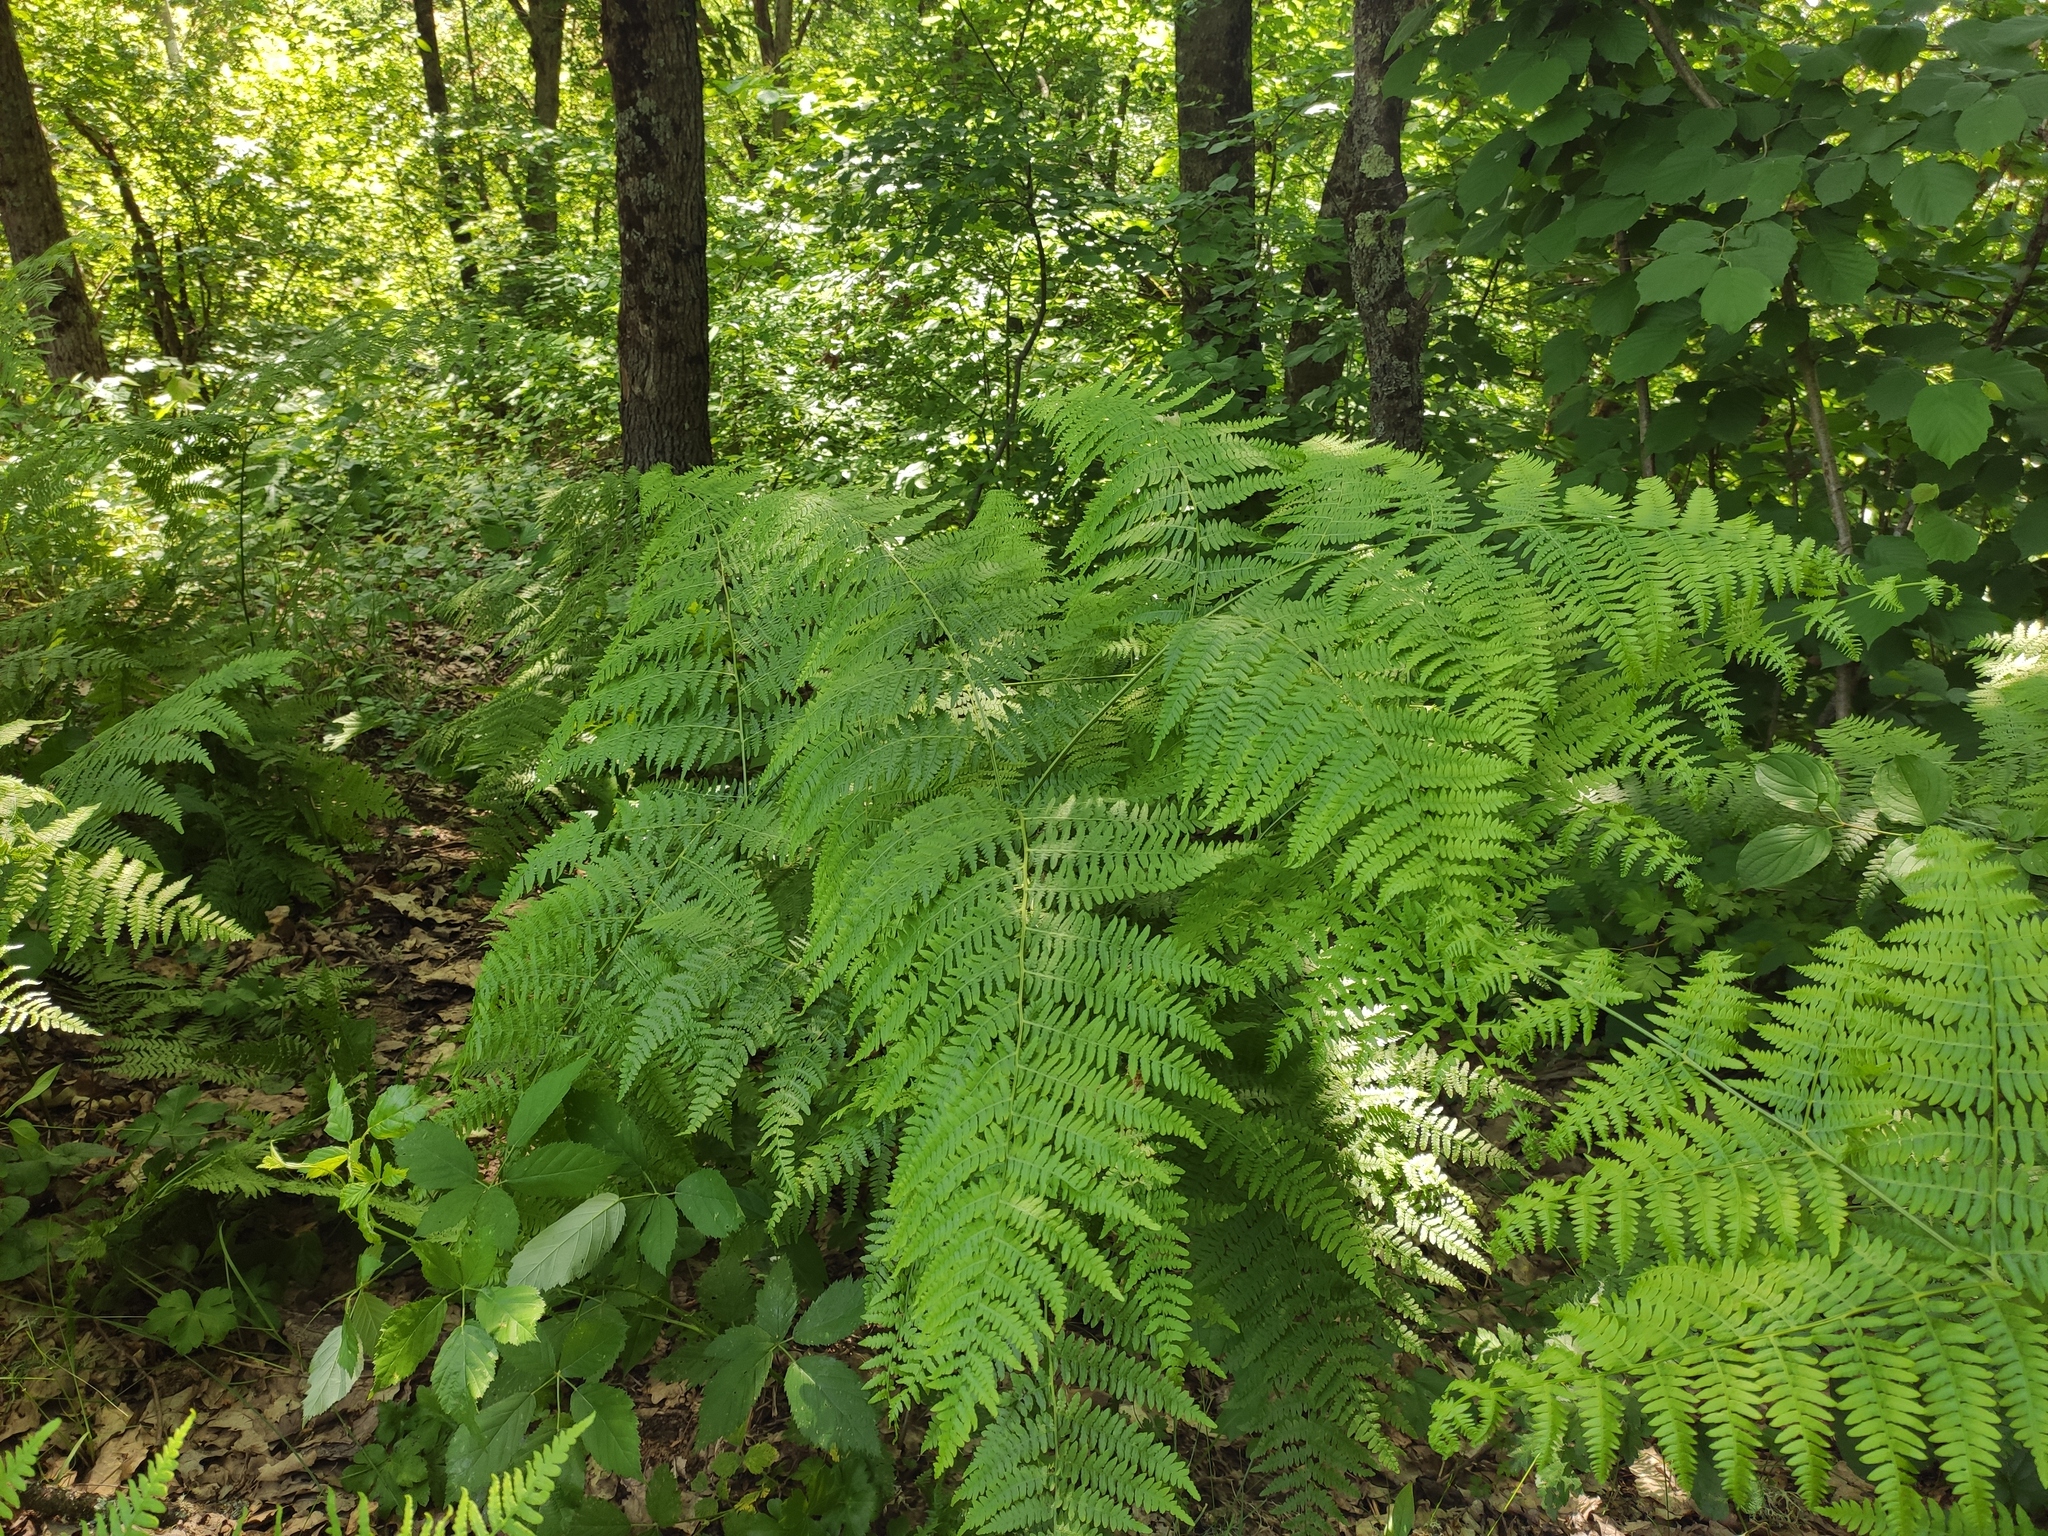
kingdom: Plantae
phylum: Tracheophyta
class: Polypodiopsida
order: Polypodiales
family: Dennstaedtiaceae
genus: Pteridium
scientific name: Pteridium tauricum
